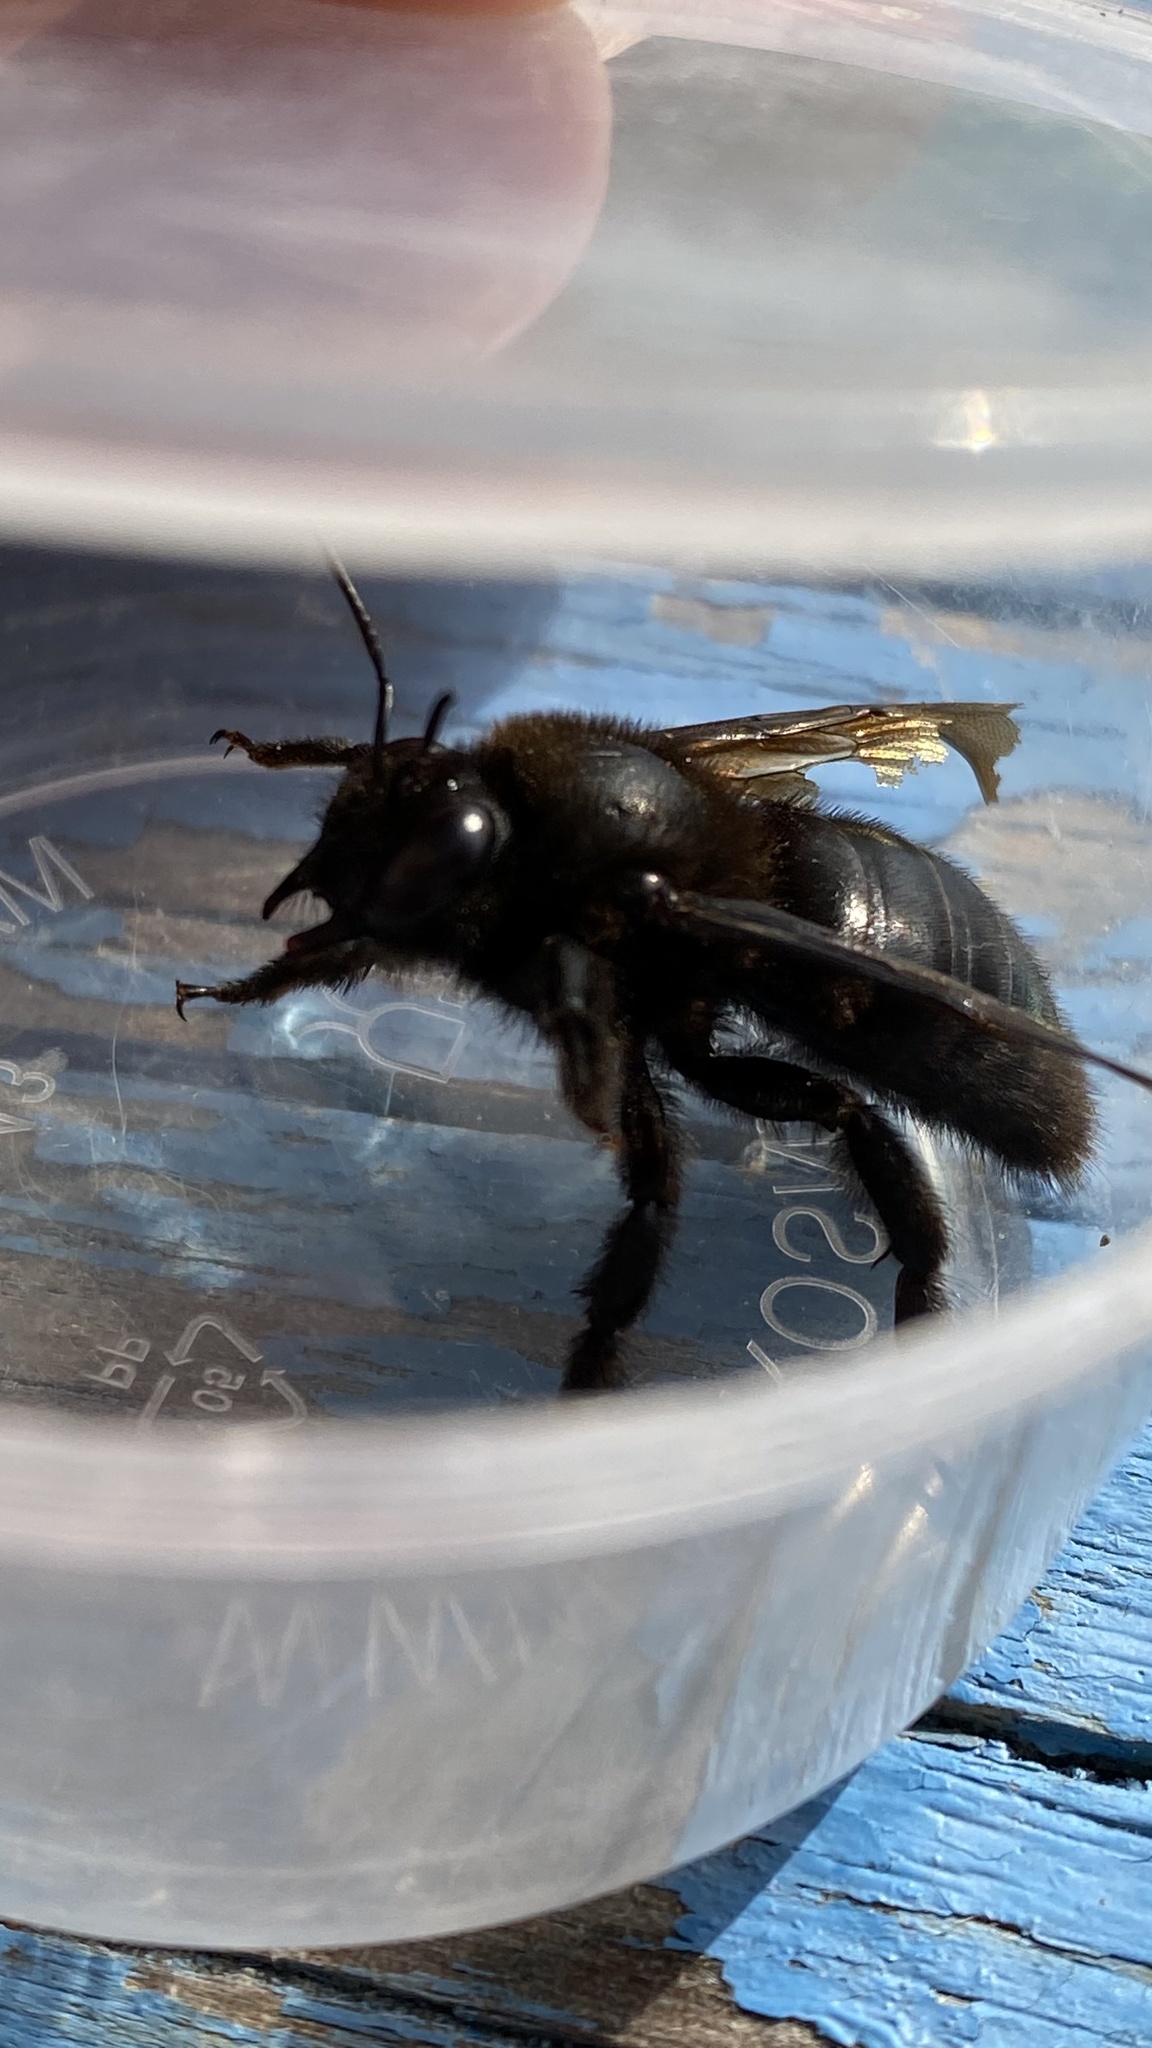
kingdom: Animalia
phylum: Arthropoda
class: Insecta
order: Hymenoptera
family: Apidae
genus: Xylocopa
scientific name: Xylocopa valga
